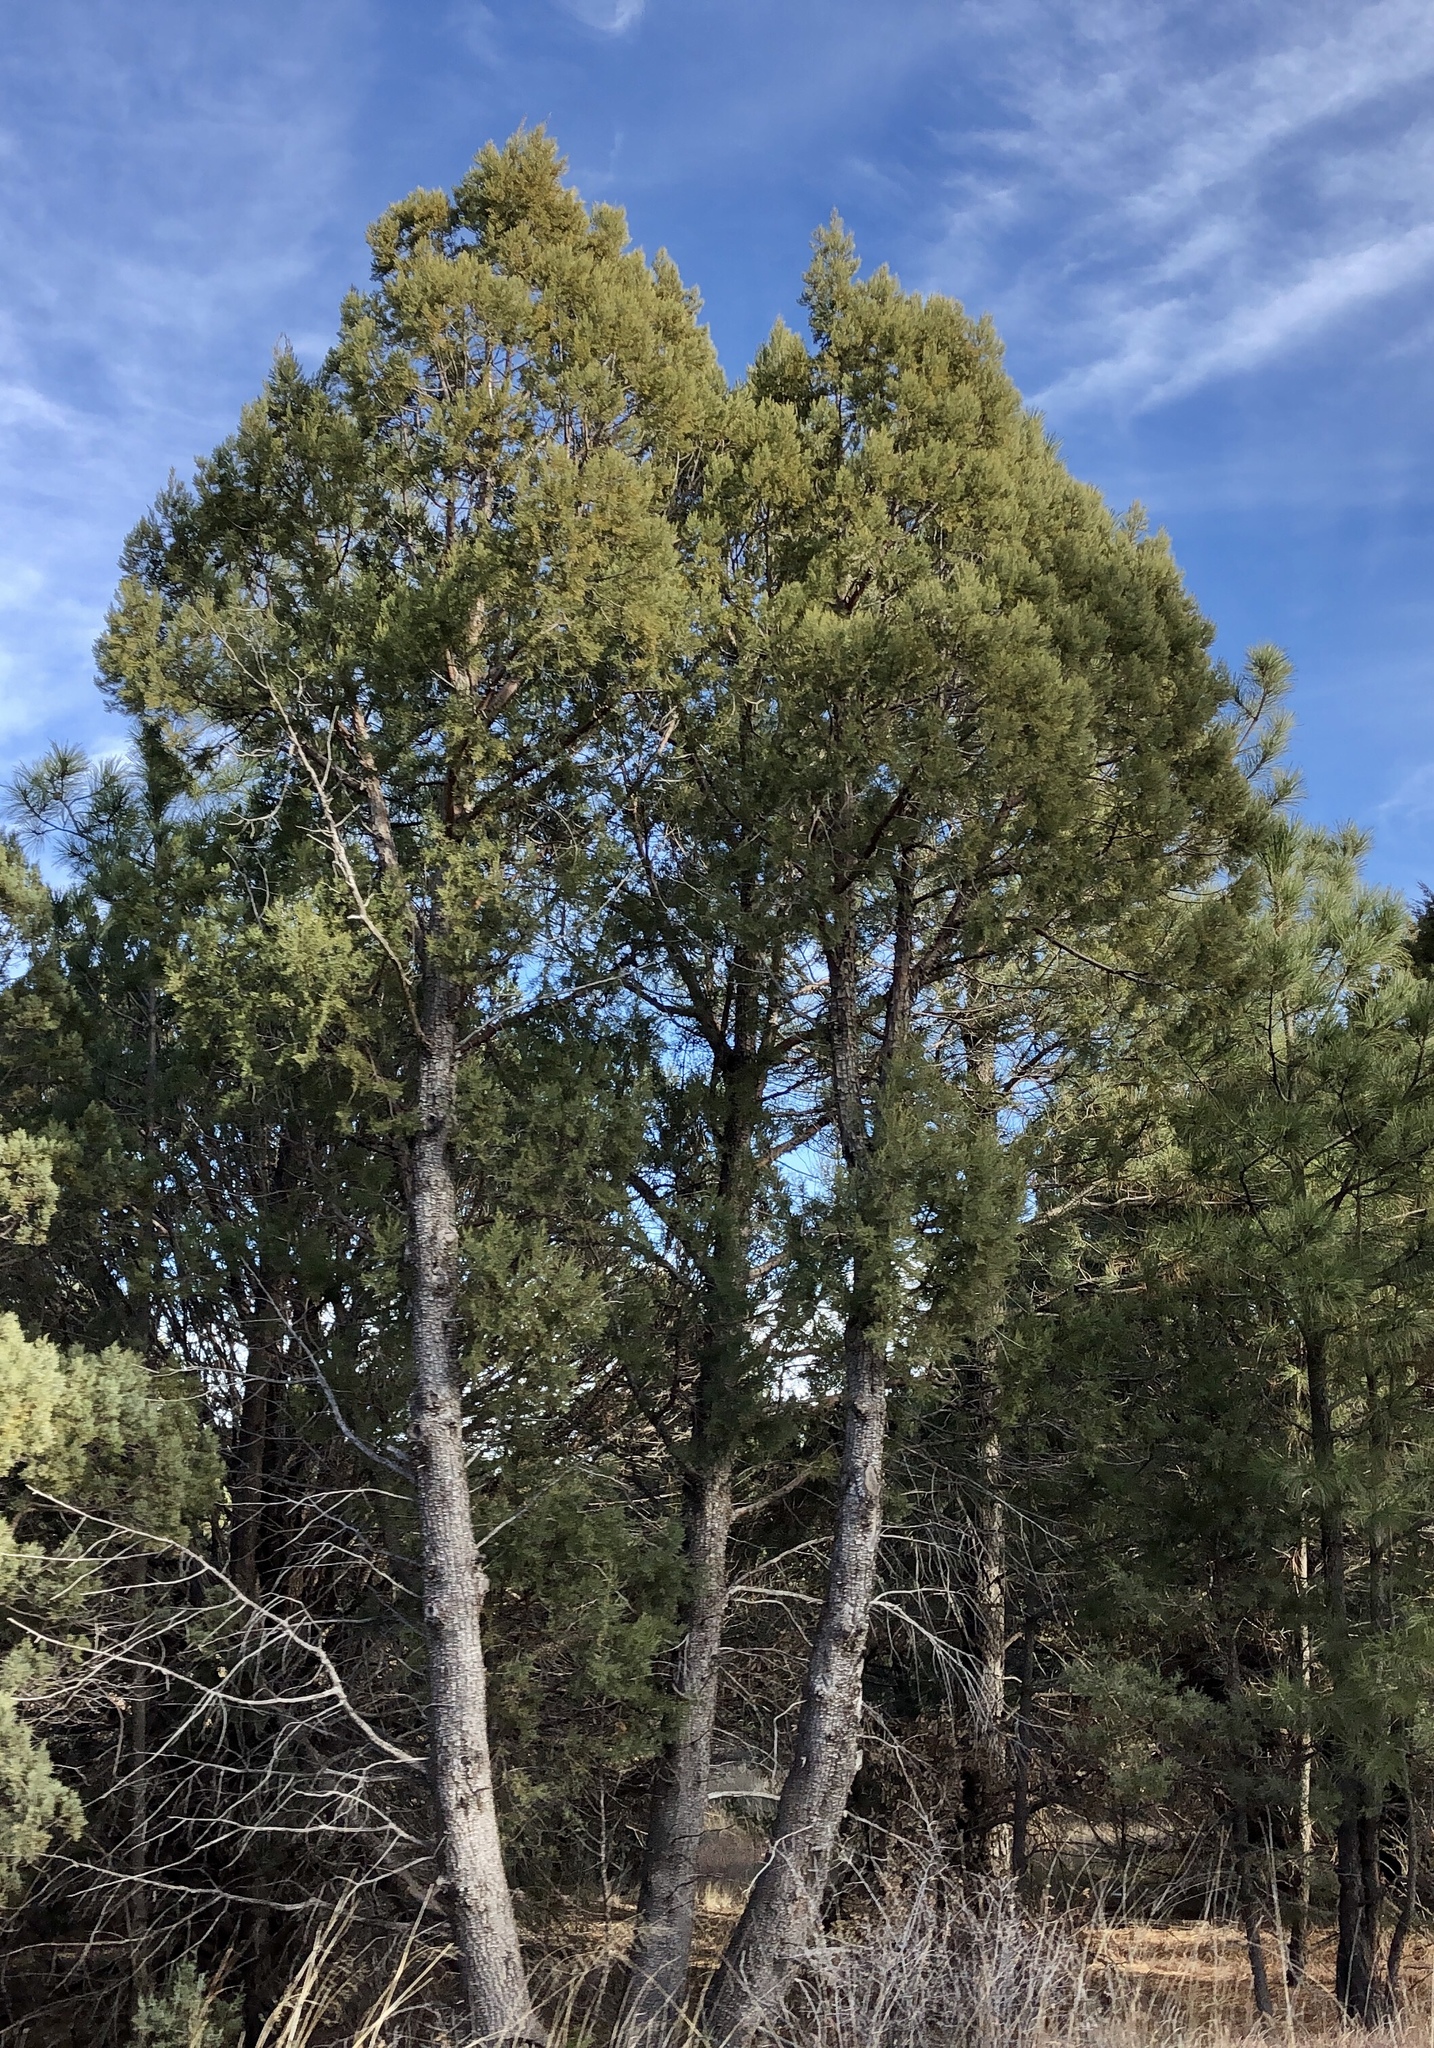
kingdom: Plantae
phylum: Tracheophyta
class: Pinopsida
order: Pinales
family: Cupressaceae
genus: Juniperus
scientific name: Juniperus deppeana
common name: Alligator juniper
